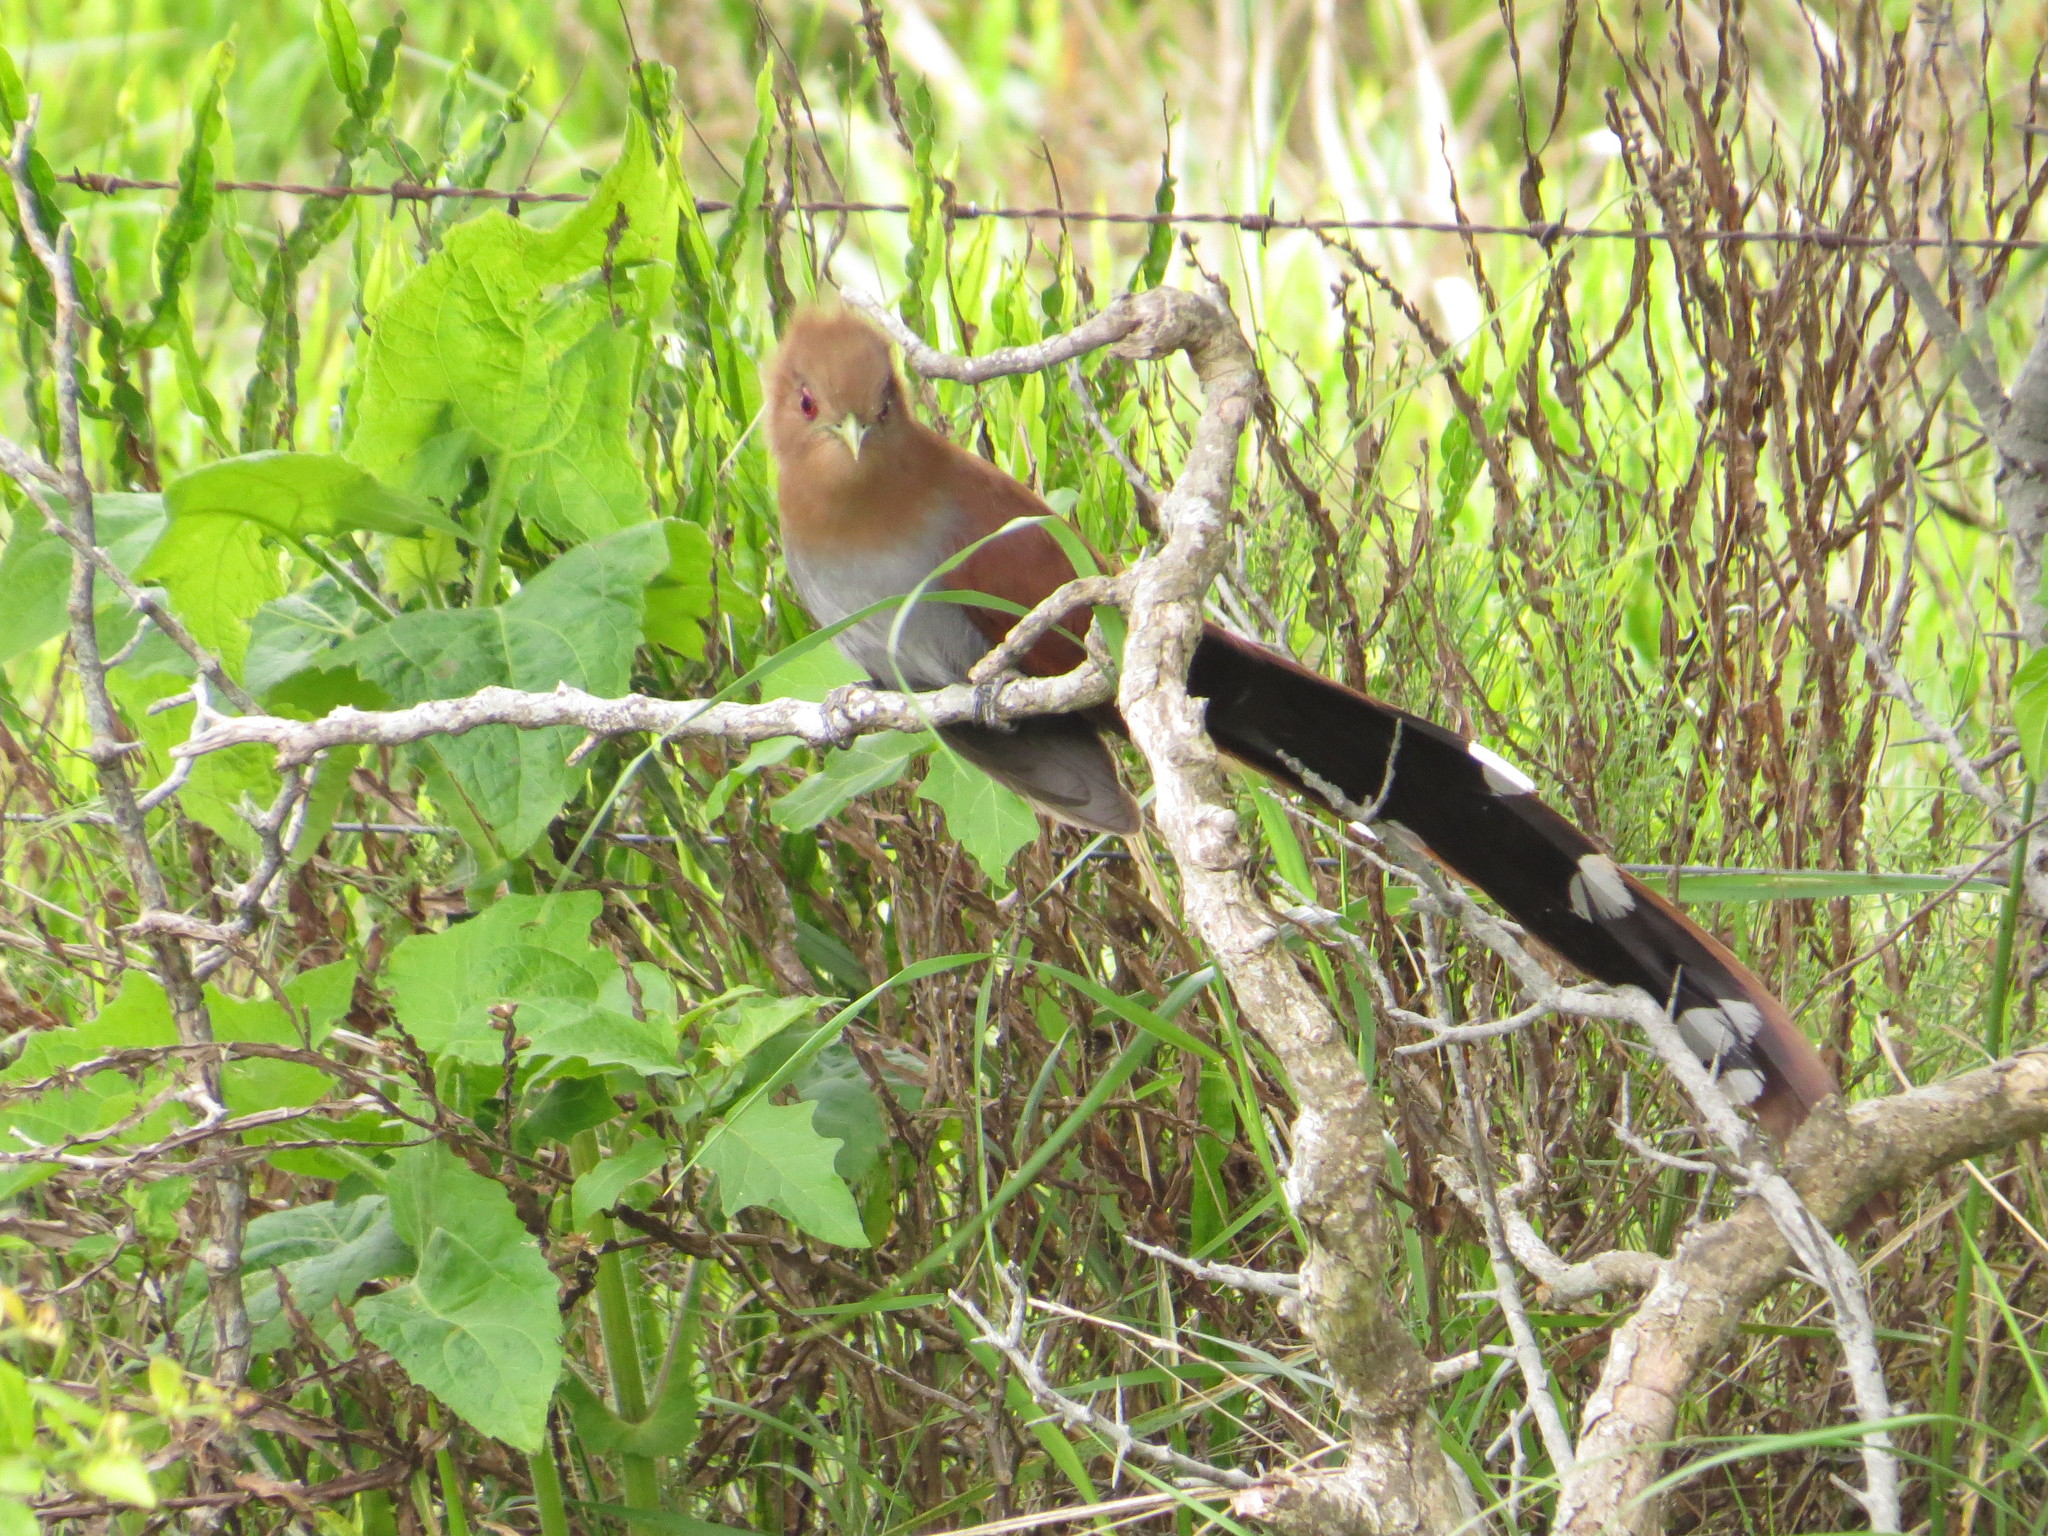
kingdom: Animalia
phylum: Chordata
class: Aves
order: Cuculiformes
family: Cuculidae
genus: Piaya
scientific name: Piaya cayana
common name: Squirrel cuckoo
